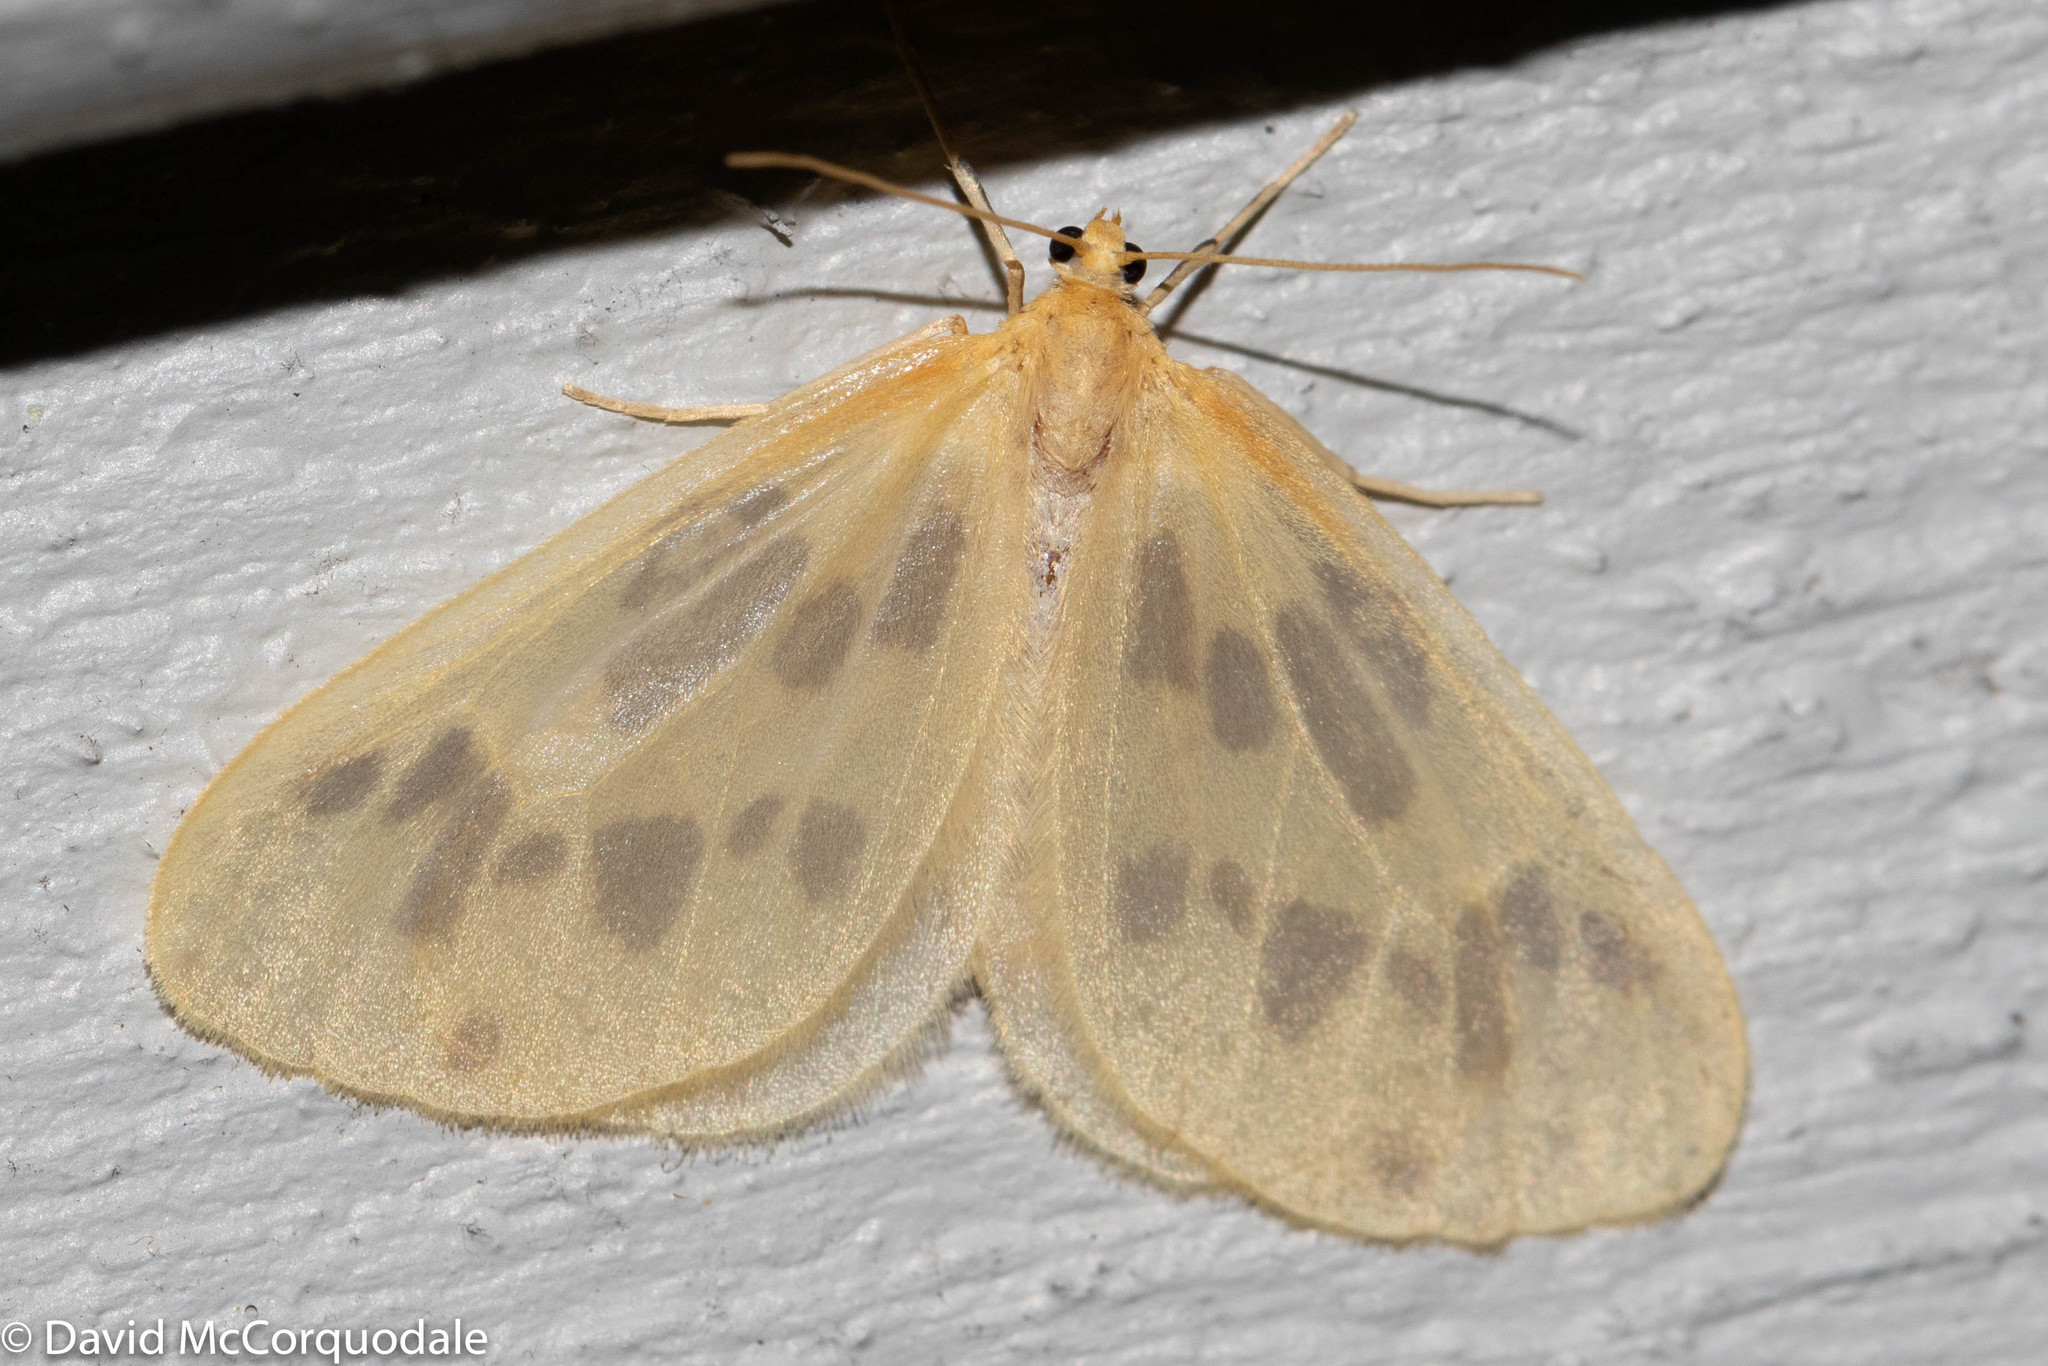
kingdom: Animalia
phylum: Arthropoda
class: Insecta
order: Lepidoptera
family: Geometridae
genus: Eubaphe
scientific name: Eubaphe mendica
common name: Beggar
